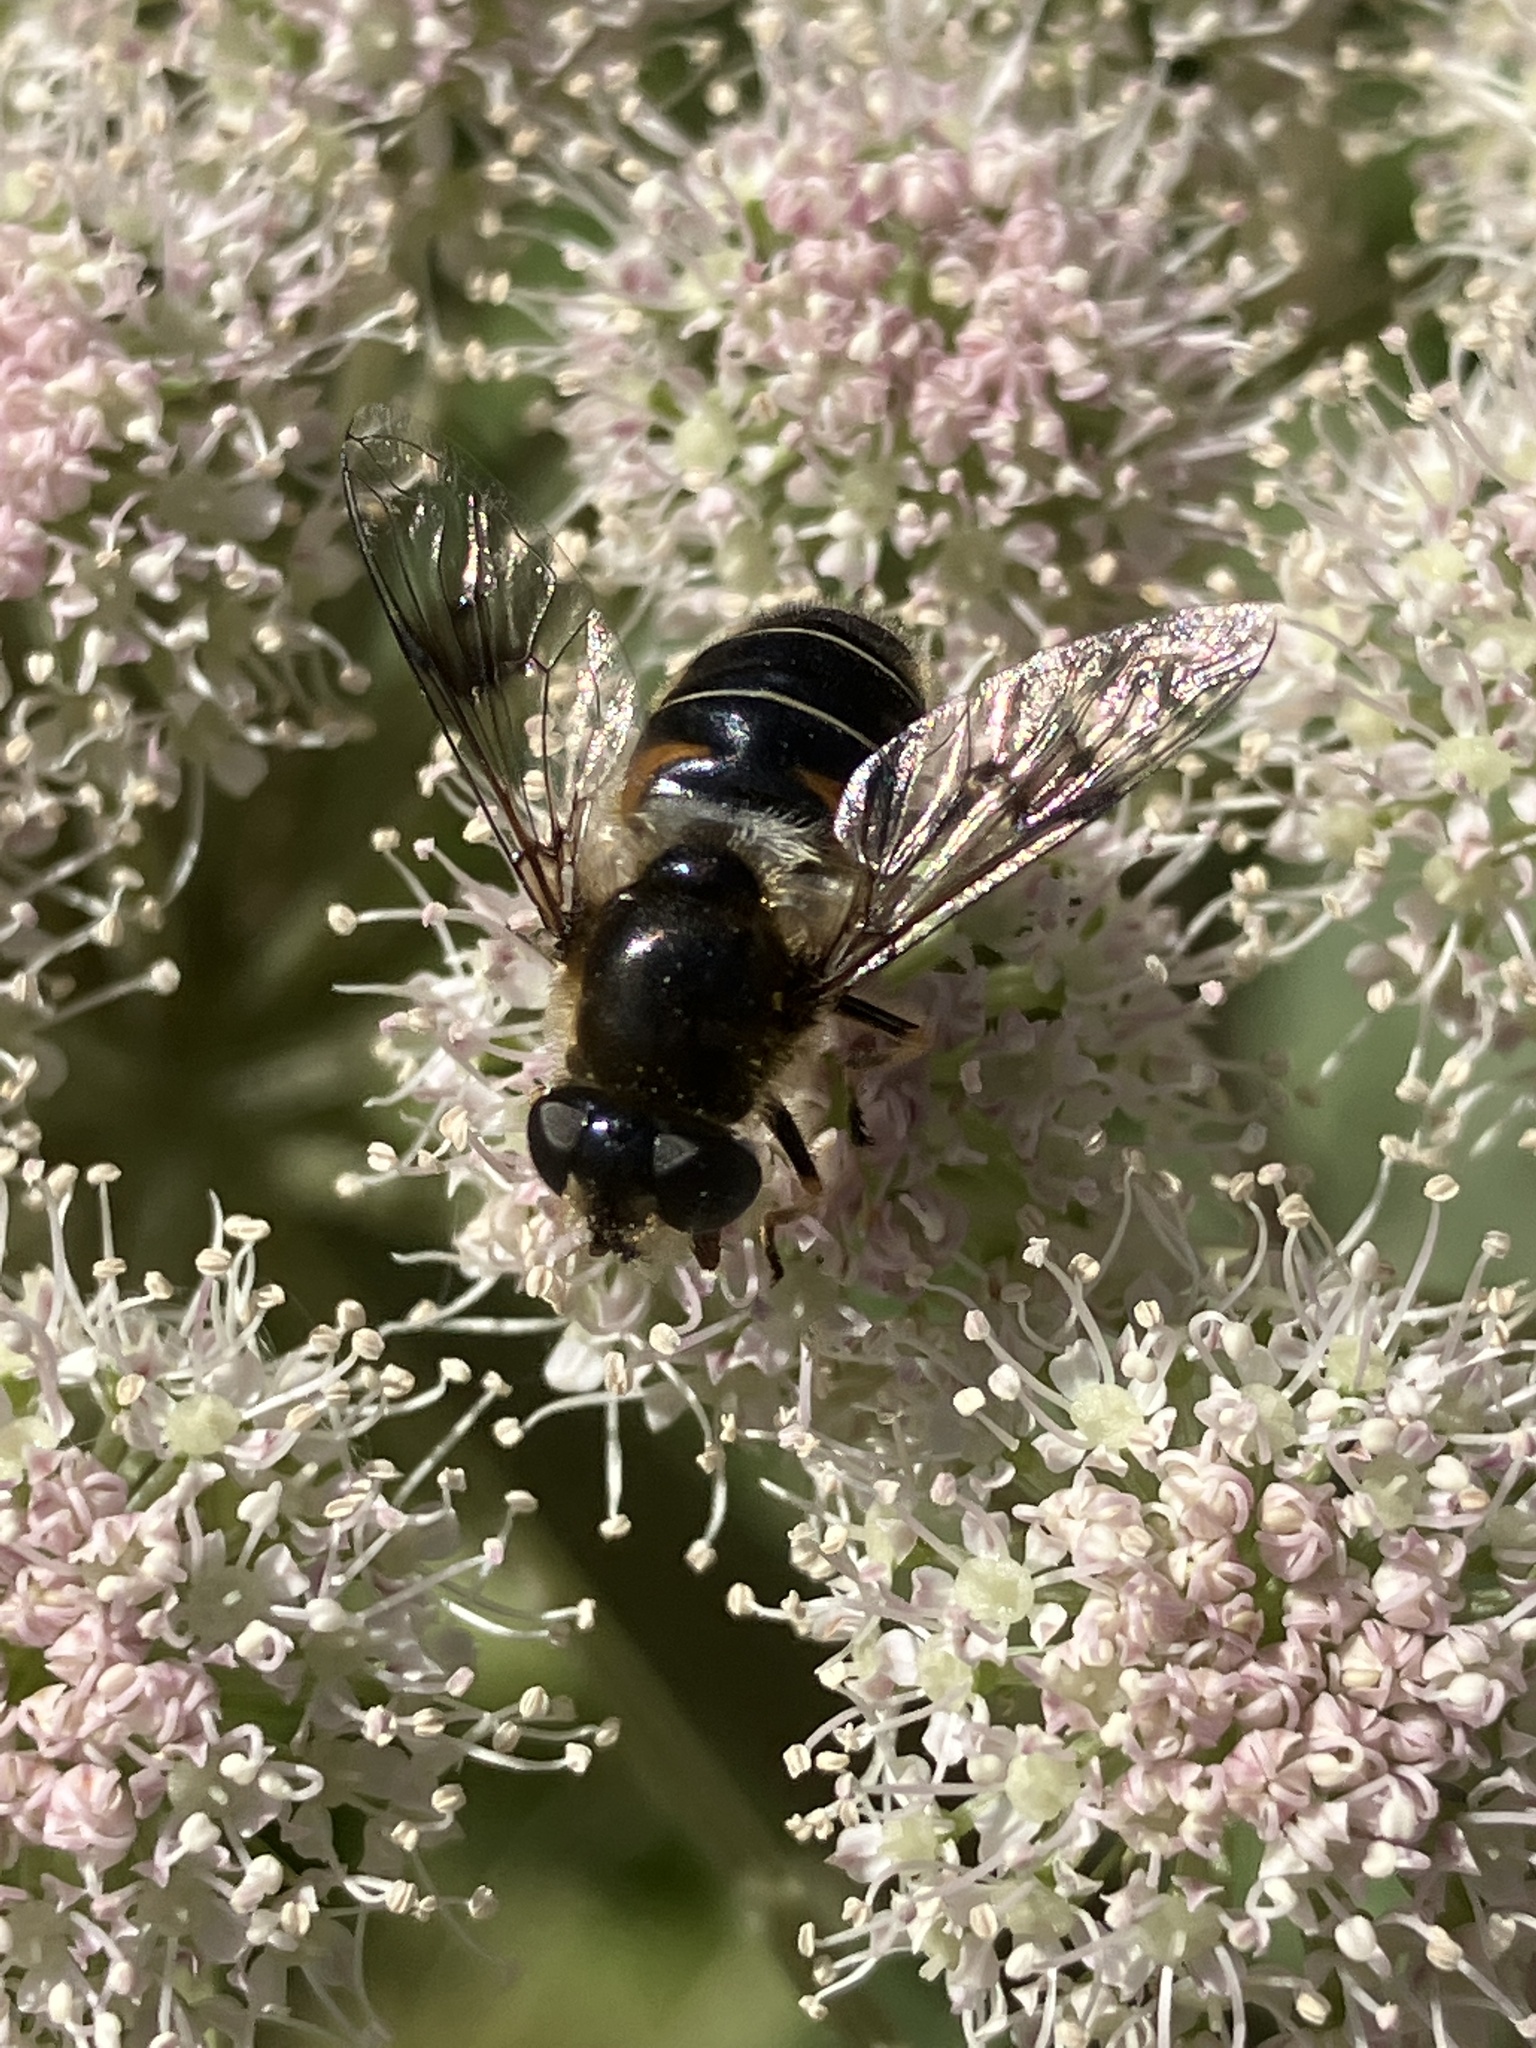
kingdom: Animalia
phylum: Arthropoda
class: Insecta
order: Diptera
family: Syrphidae
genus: Eristalis
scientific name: Eristalis rupium
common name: Hover fly
